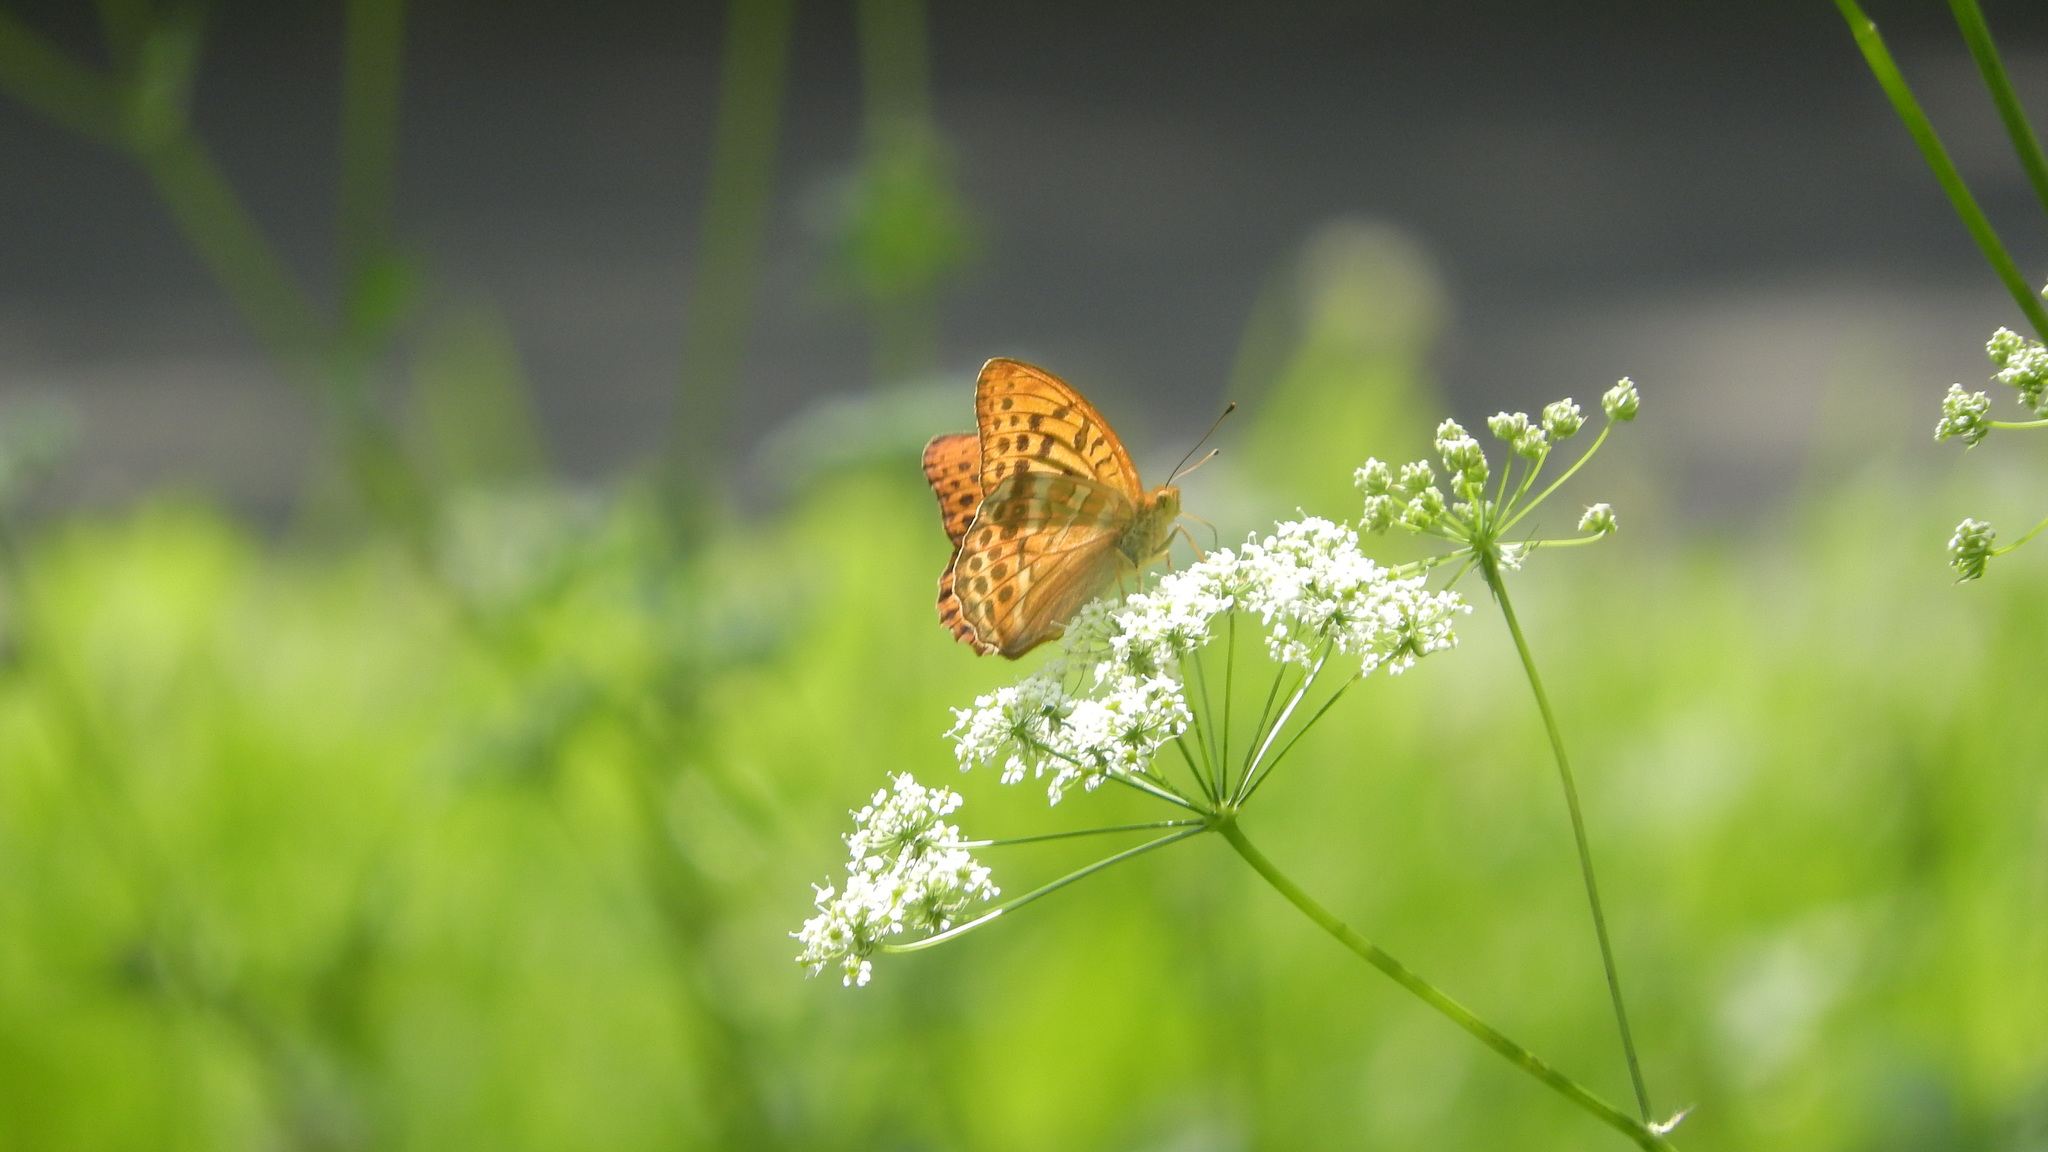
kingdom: Animalia
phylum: Arthropoda
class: Insecta
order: Lepidoptera
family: Nymphalidae
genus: Argynnis
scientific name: Argynnis paphia
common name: Silver-washed fritillary
